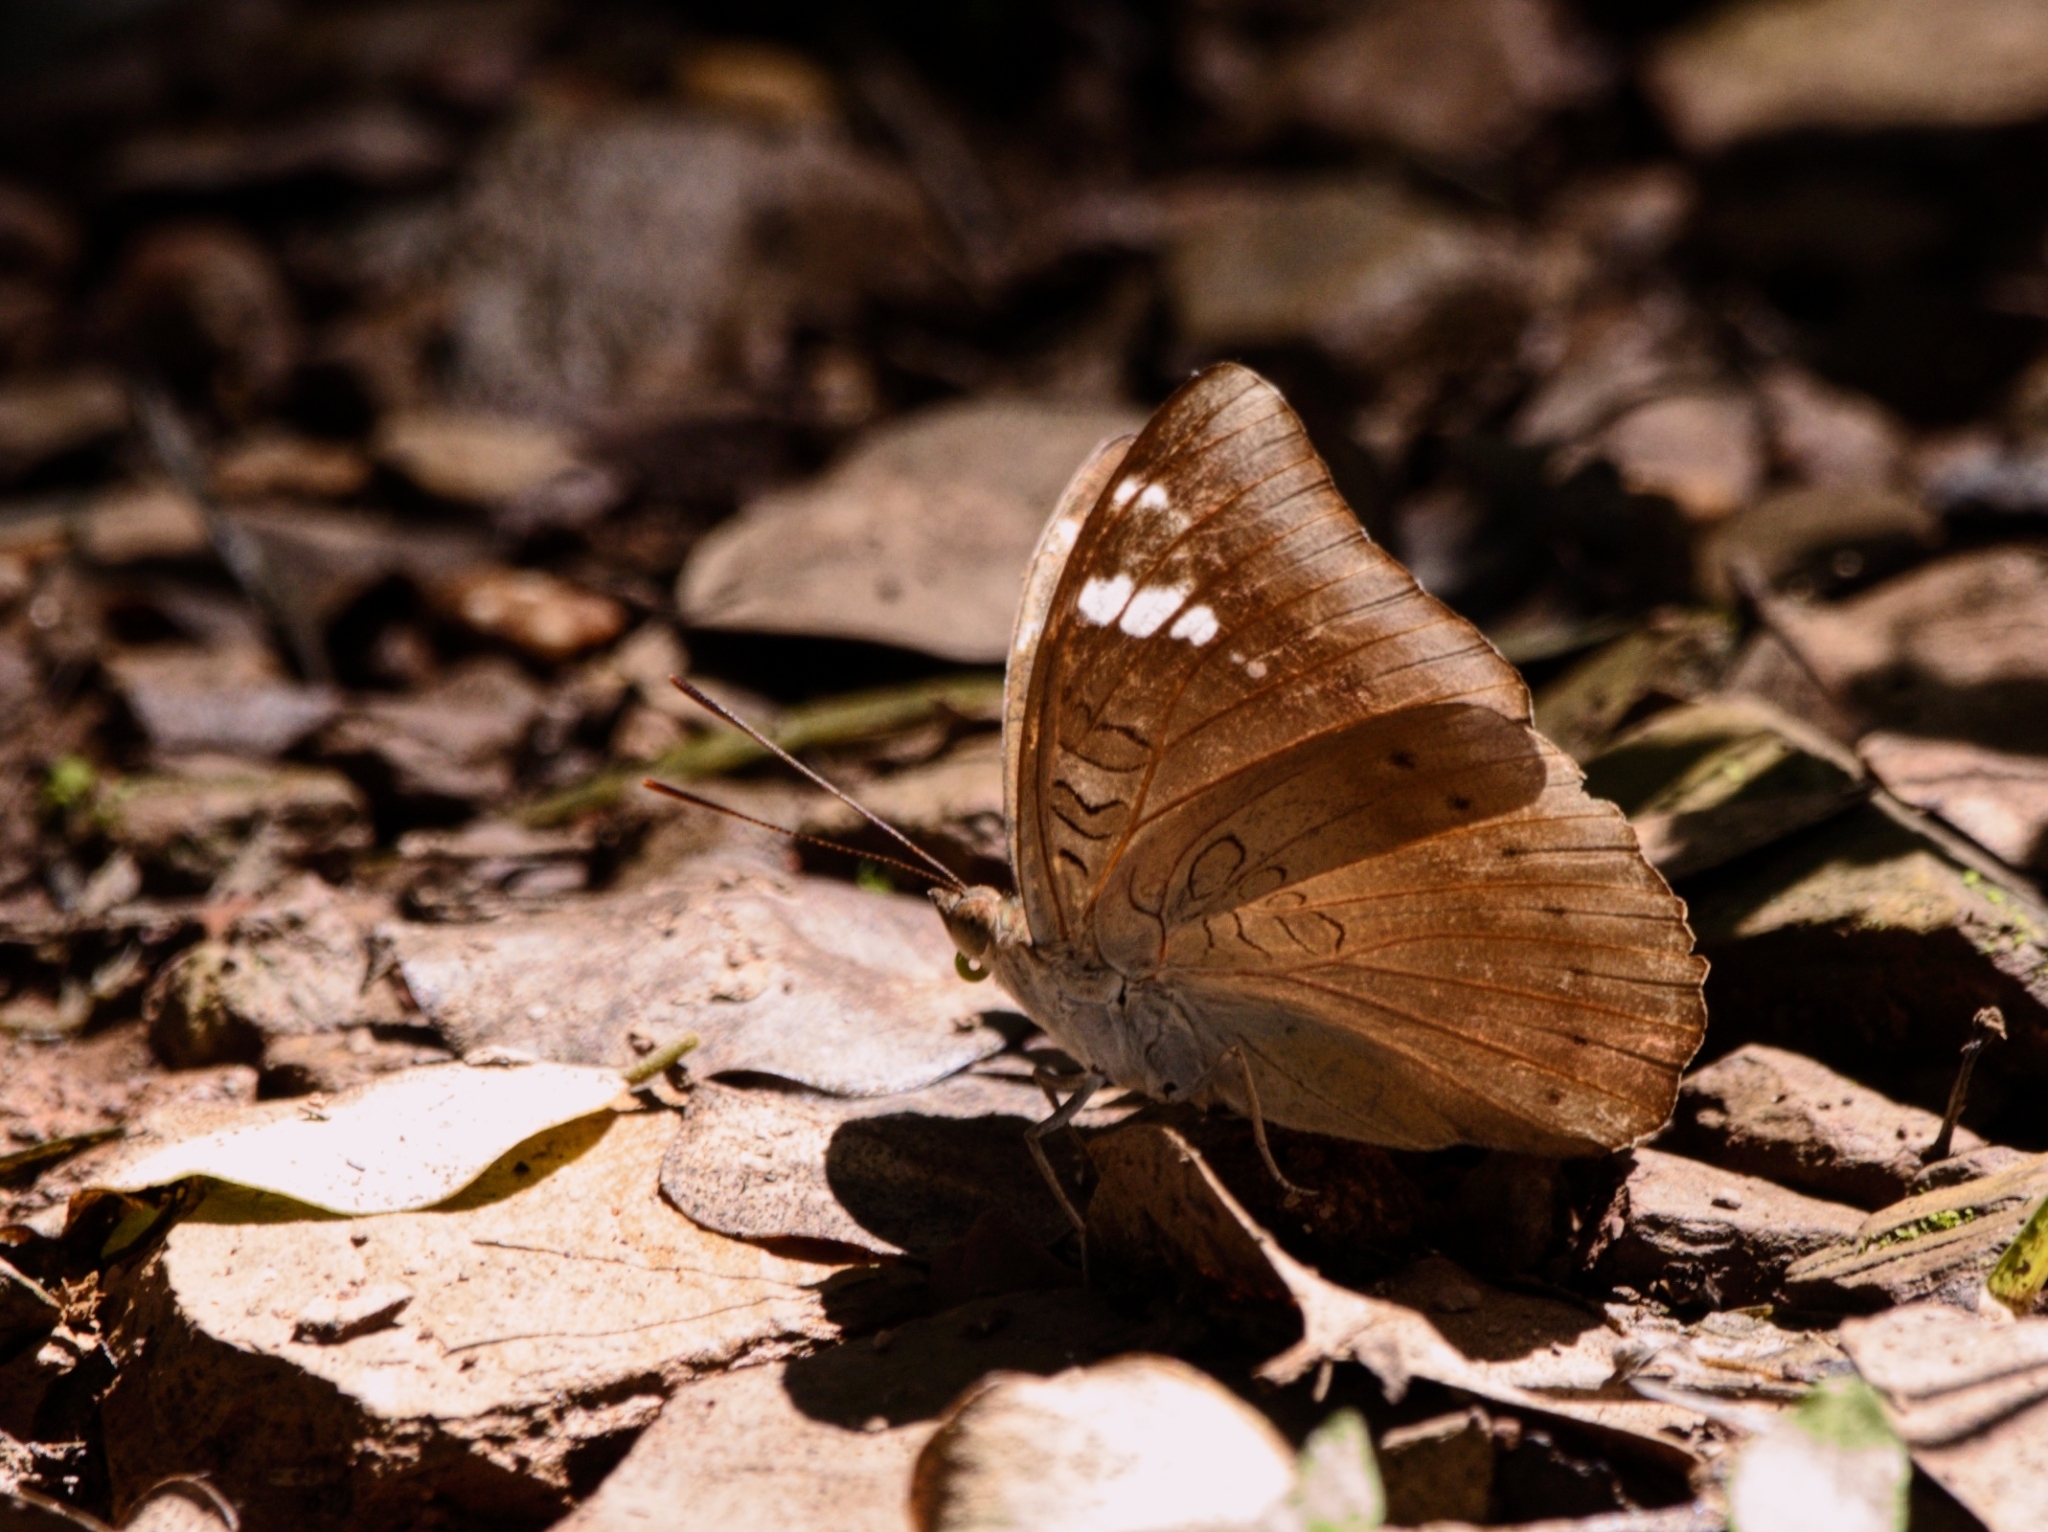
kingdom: Animalia
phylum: Arthropoda
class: Insecta
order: Lepidoptera
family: Nymphalidae
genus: Euthalia
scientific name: Euthalia aconthea
